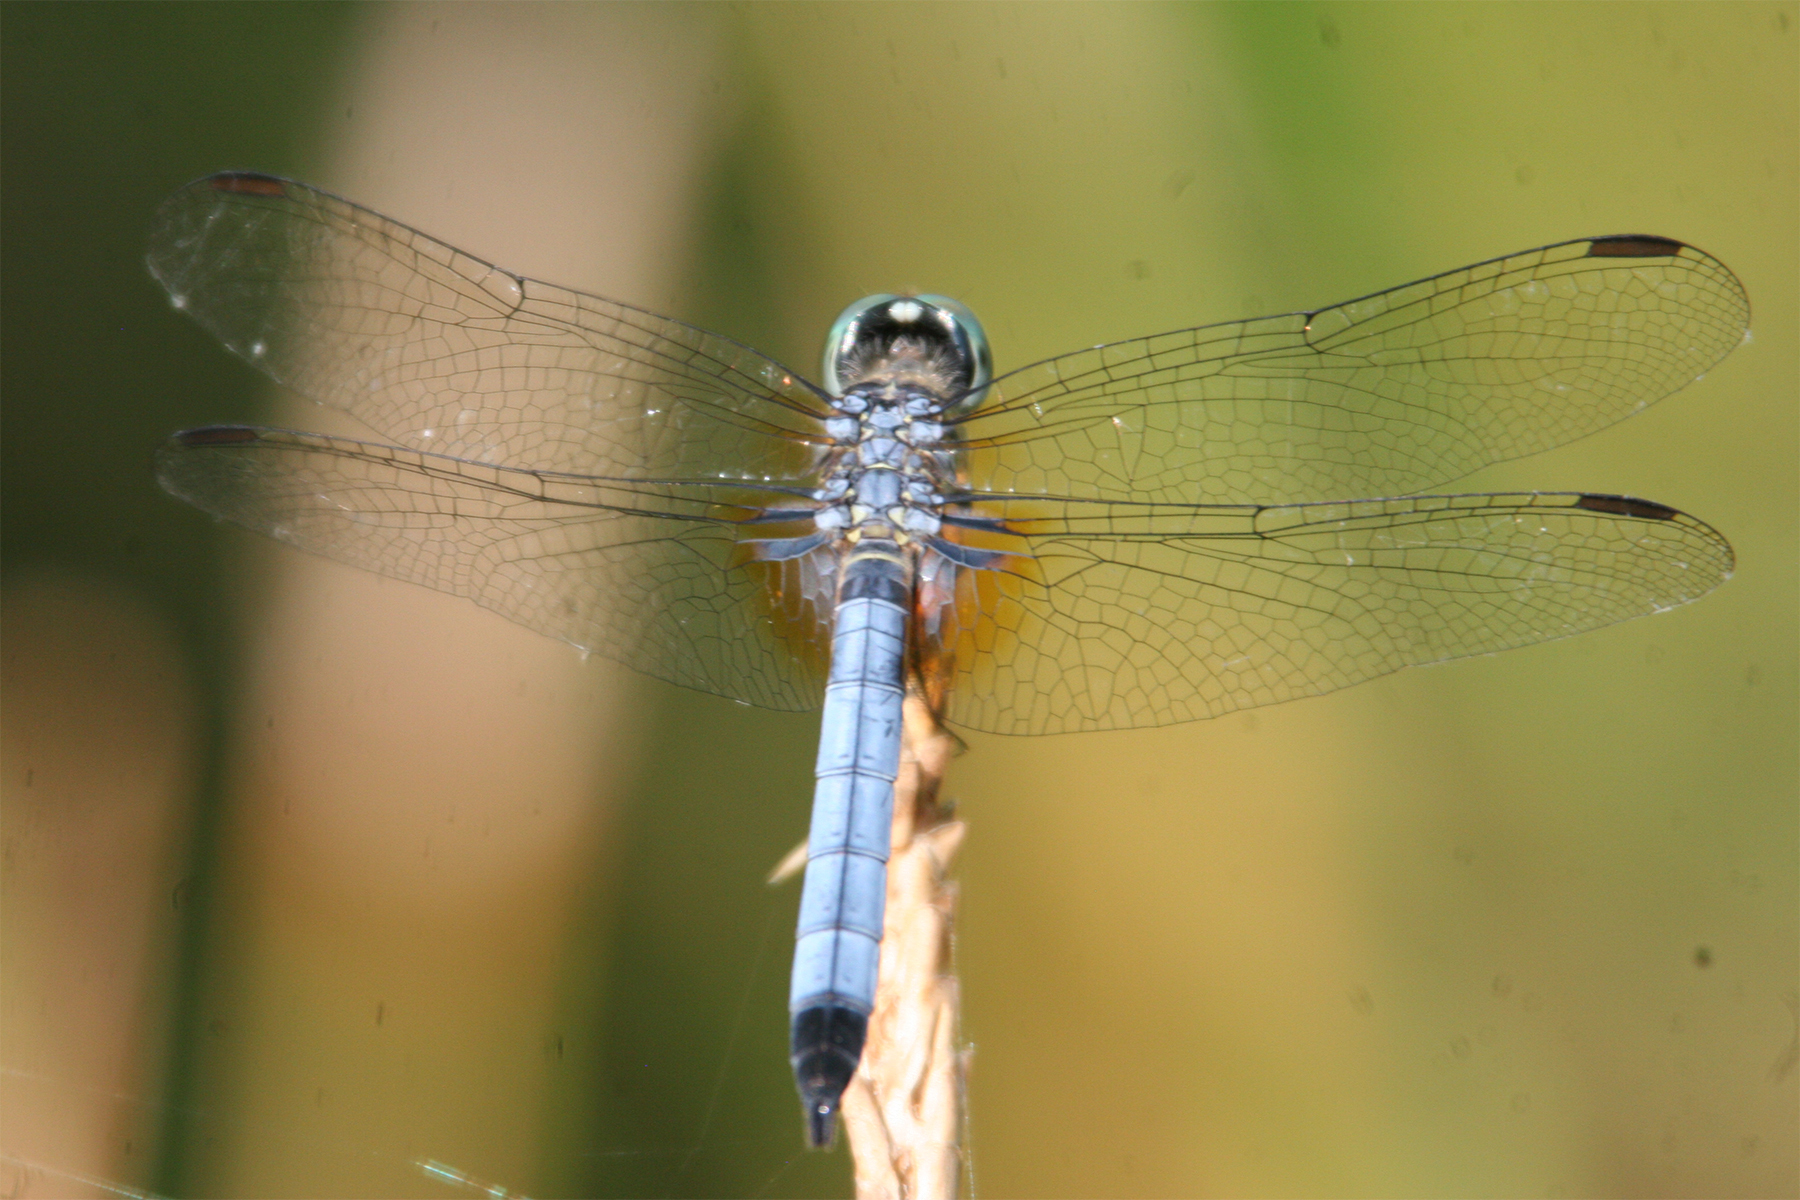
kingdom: Animalia
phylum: Arthropoda
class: Insecta
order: Odonata
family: Libellulidae
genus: Pachydiplax
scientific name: Pachydiplax longipennis
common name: Blue dasher
